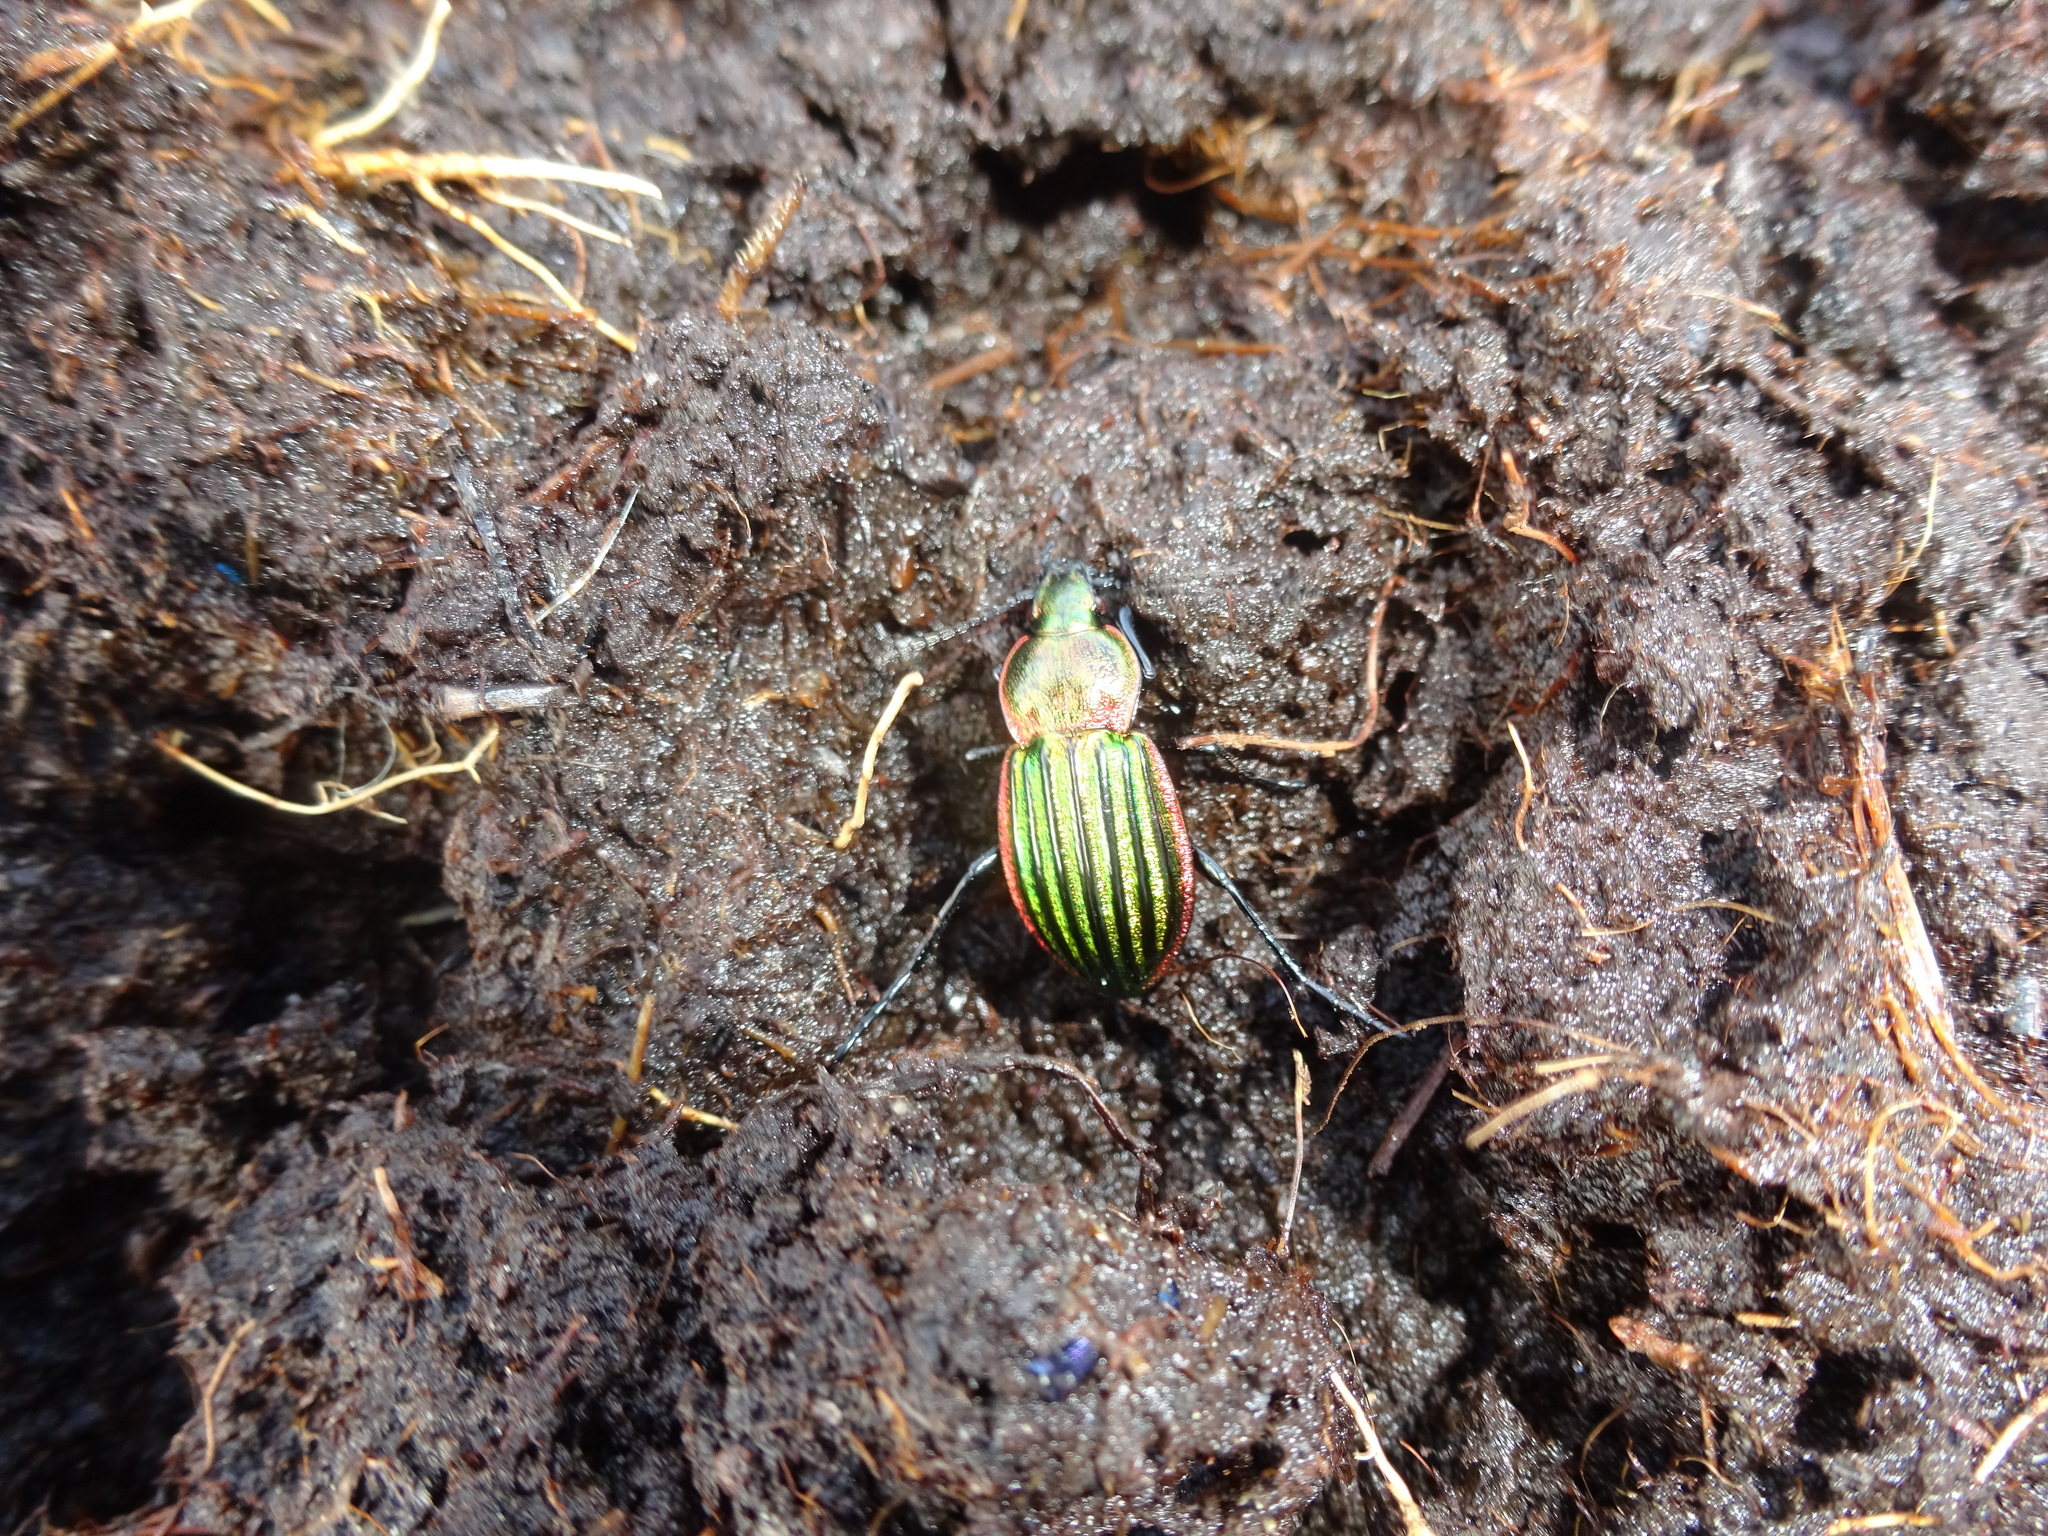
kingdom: Animalia
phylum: Arthropoda
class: Insecta
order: Coleoptera
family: Carabidae
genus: Carabus
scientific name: Carabus nitens
